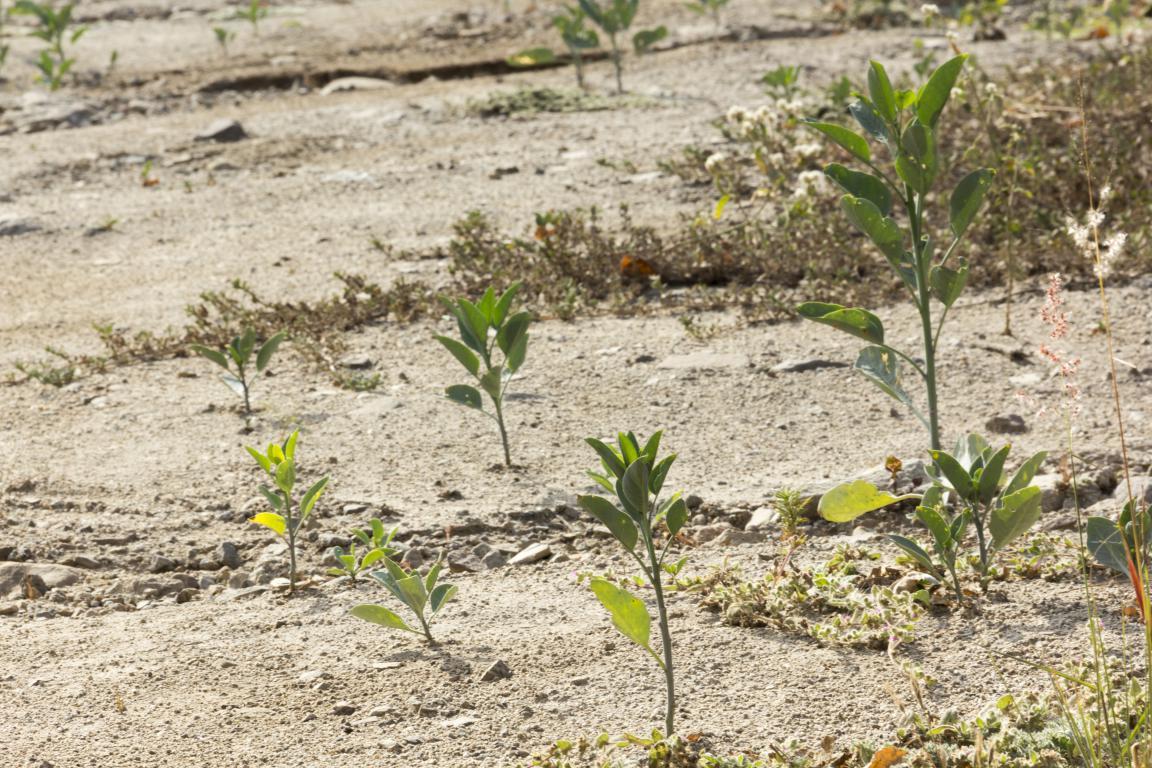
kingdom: Plantae
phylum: Tracheophyta
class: Magnoliopsida
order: Solanales
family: Solanaceae
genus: Nicotiana
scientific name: Nicotiana glauca
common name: Tree tobacco
